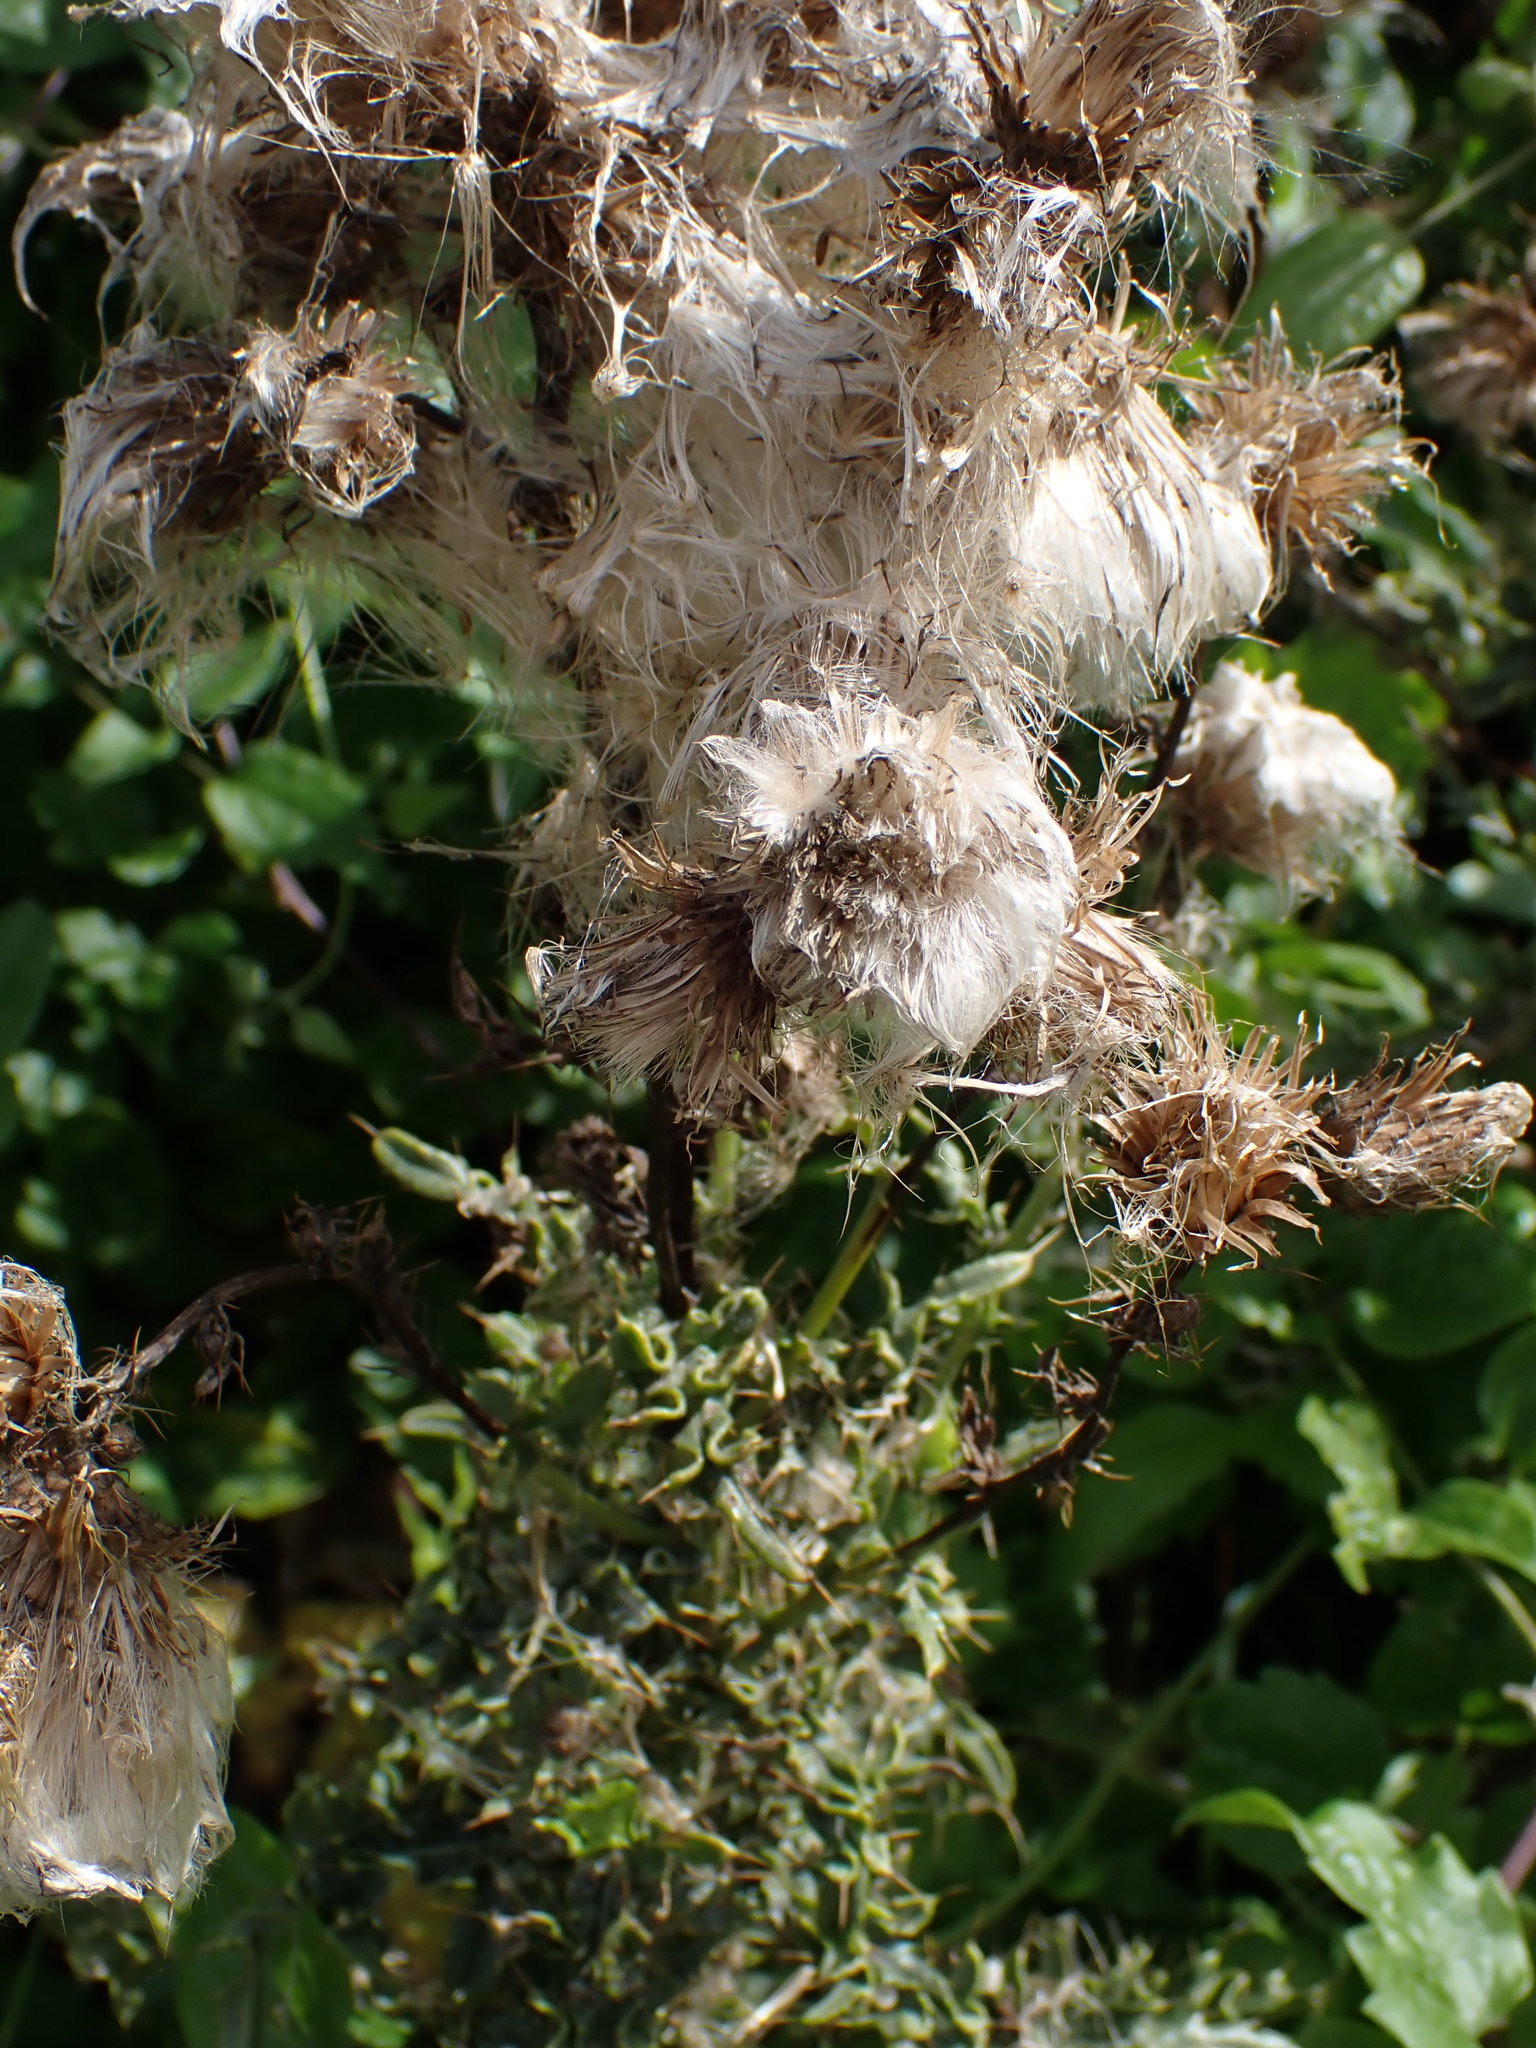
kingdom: Plantae
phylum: Tracheophyta
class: Magnoliopsida
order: Asterales
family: Asteraceae
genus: Cirsium
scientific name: Cirsium arvense
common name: Creeping thistle
